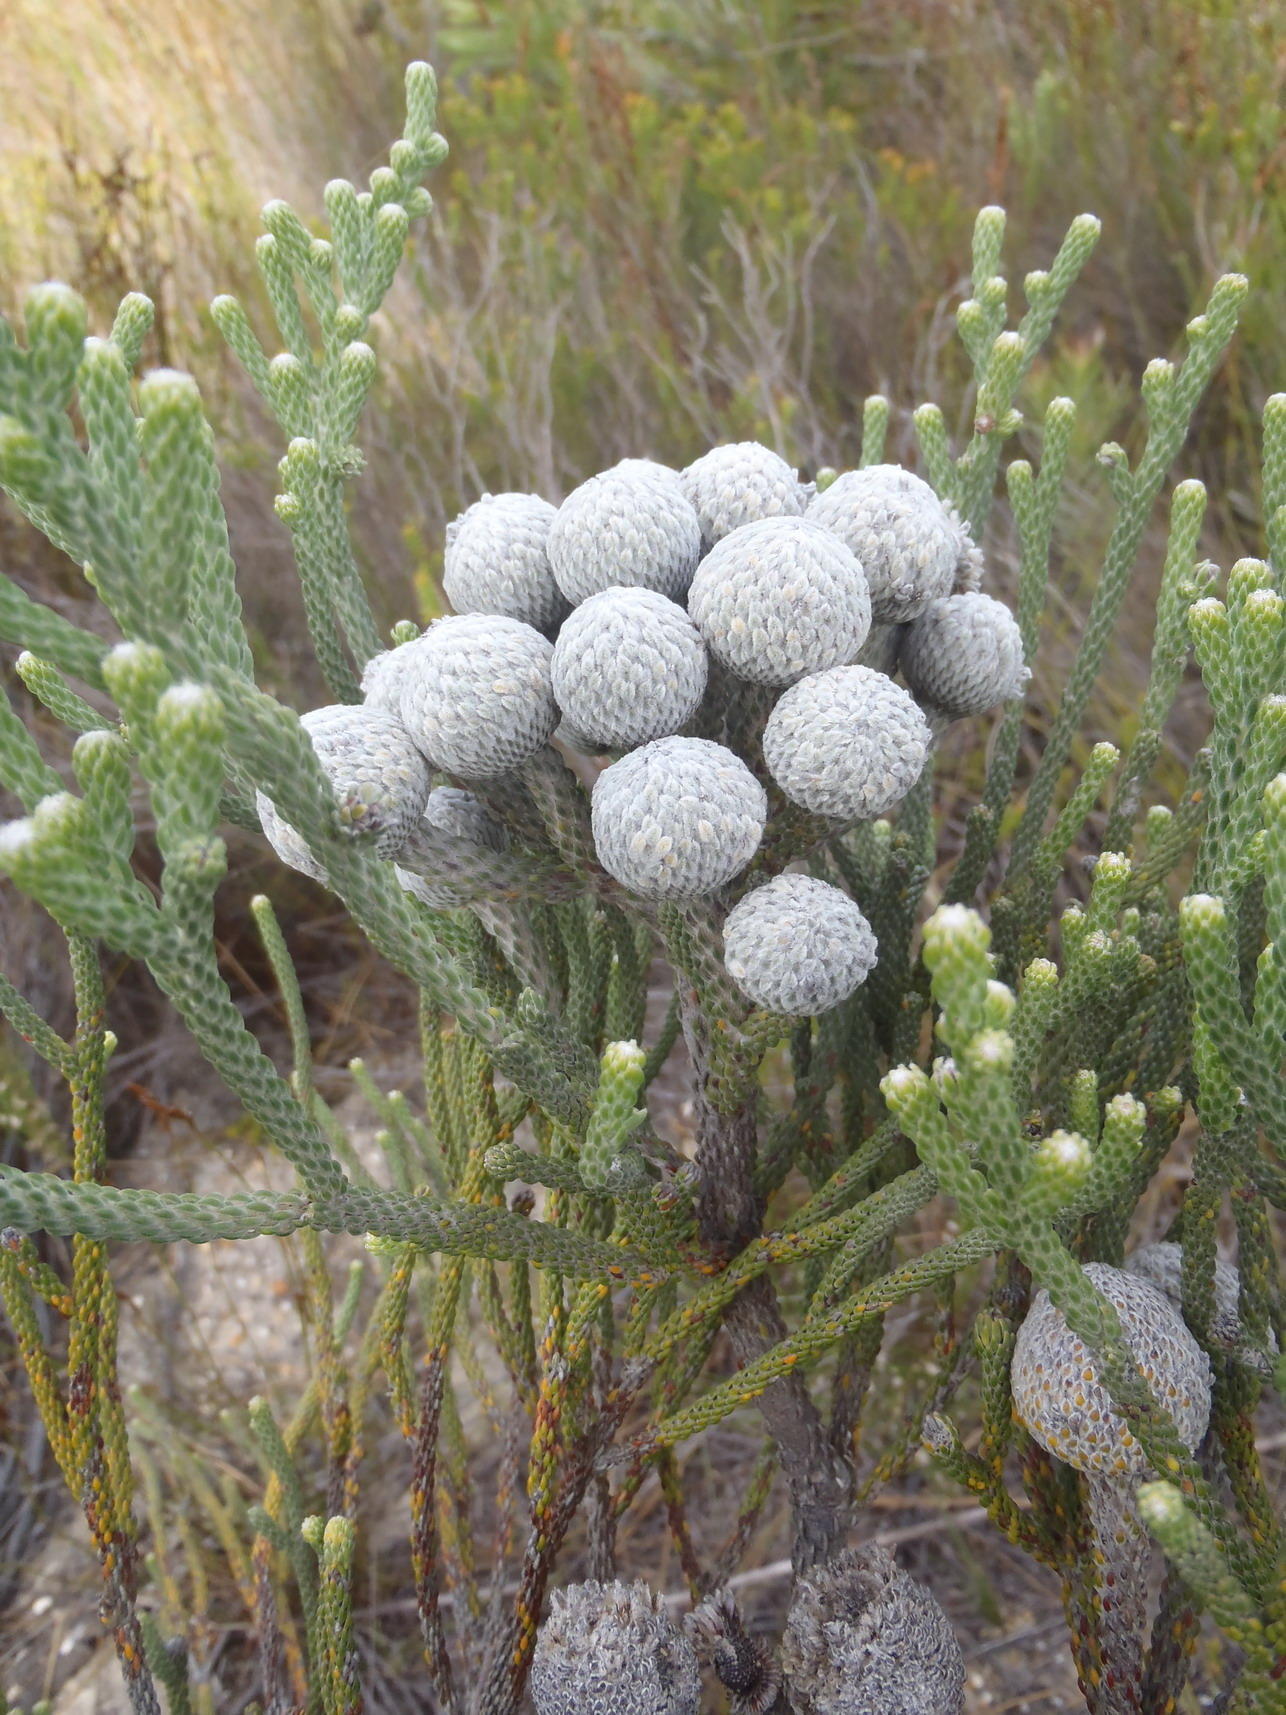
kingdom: Plantae
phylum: Tracheophyta
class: Magnoliopsida
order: Bruniales
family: Bruniaceae
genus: Brunia
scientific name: Brunia laevis
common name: Silver brunia
